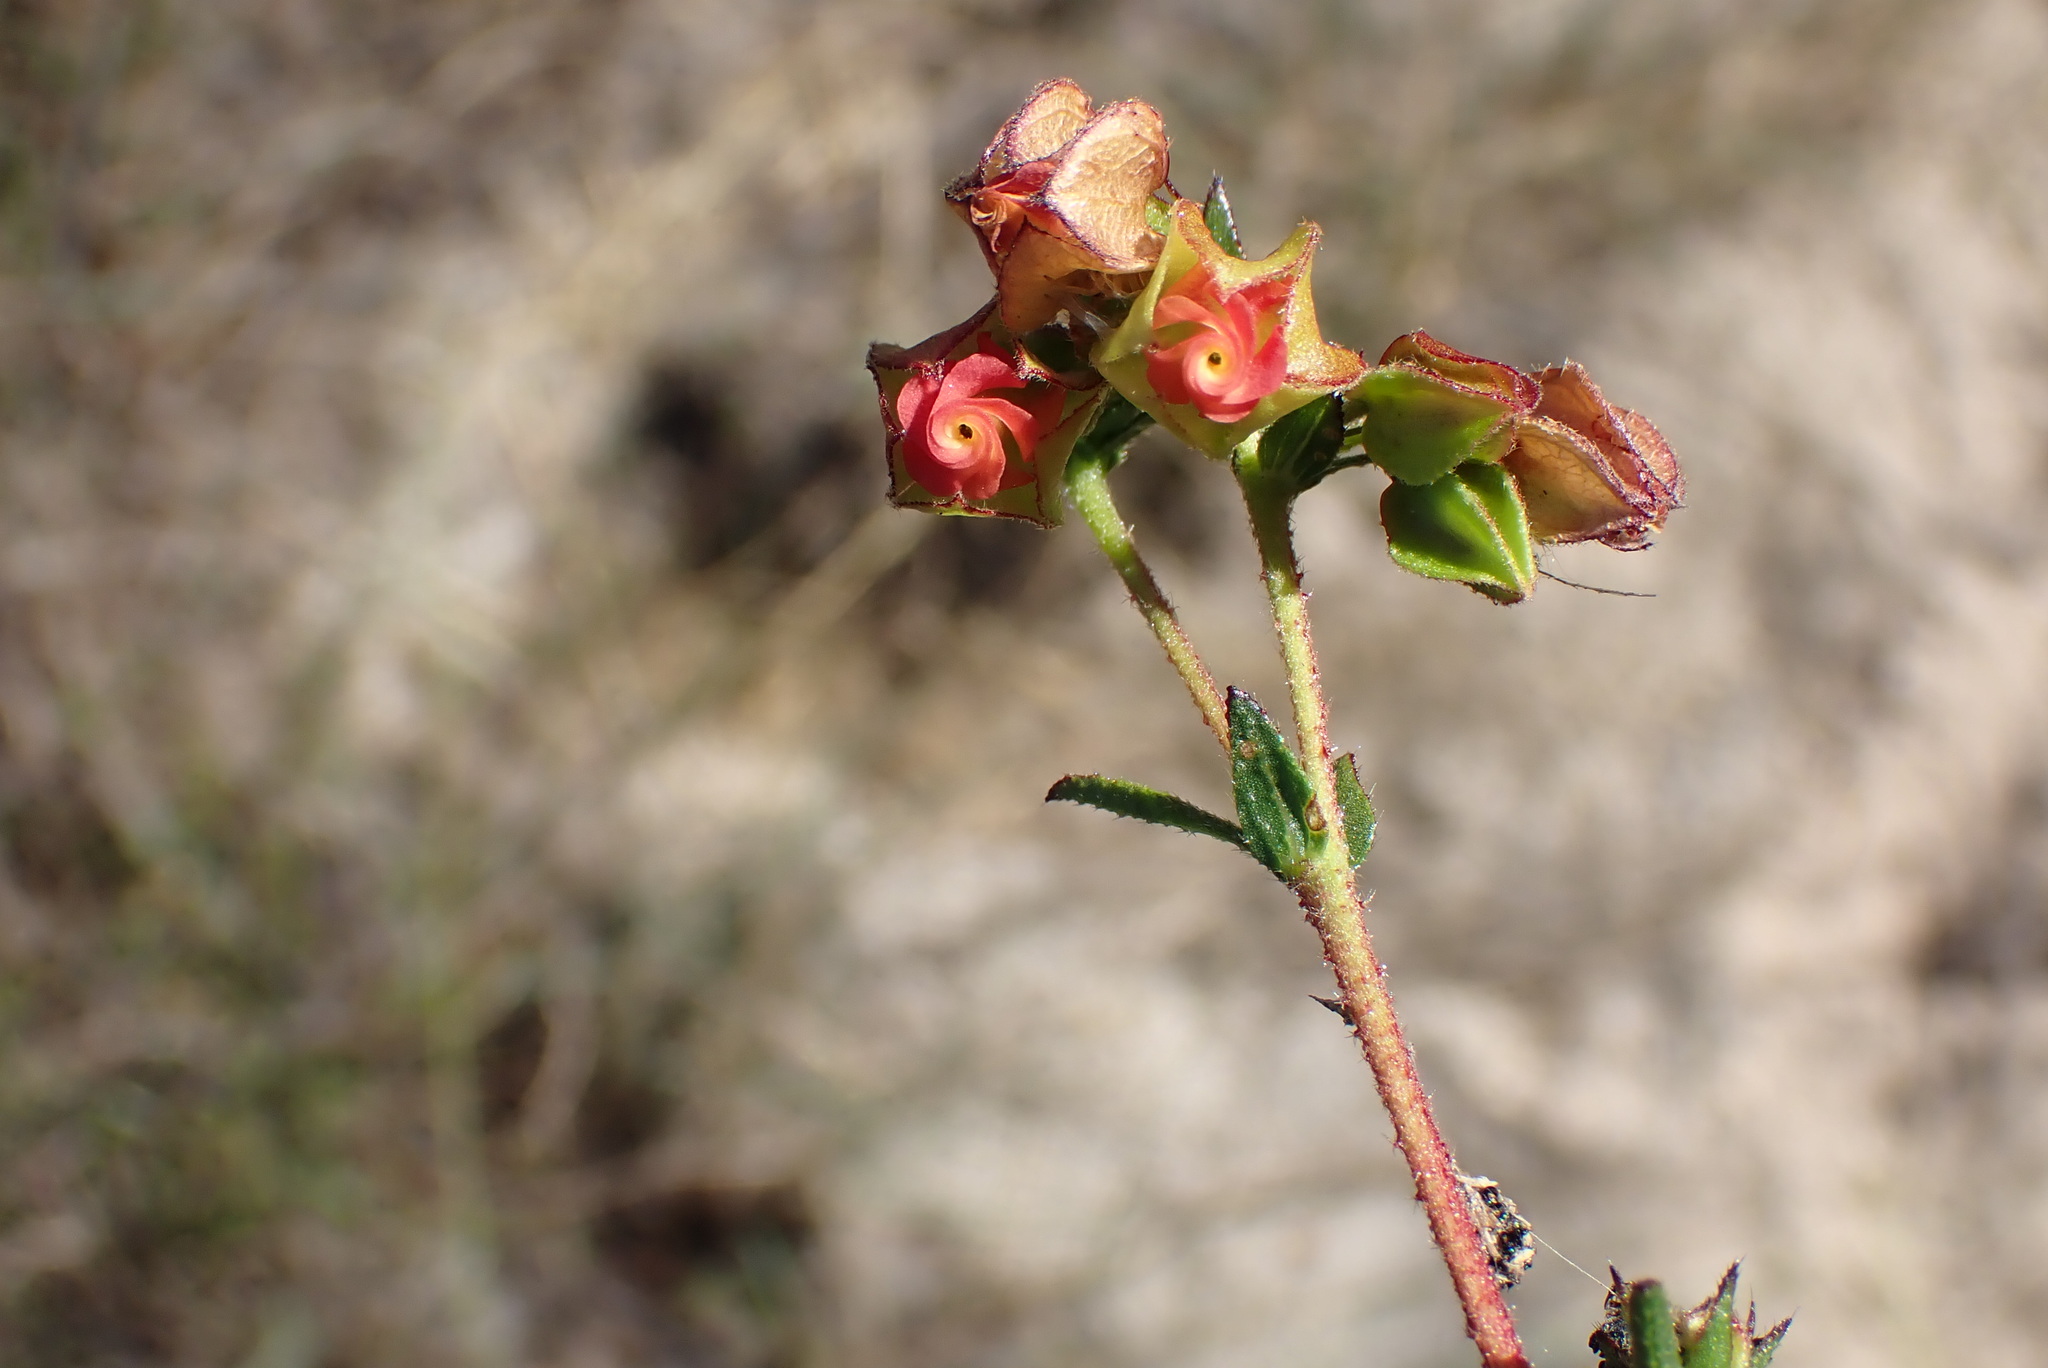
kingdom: Plantae
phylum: Tracheophyta
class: Magnoliopsida
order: Malvales
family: Malvaceae
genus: Hermannia
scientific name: Hermannia angularis
